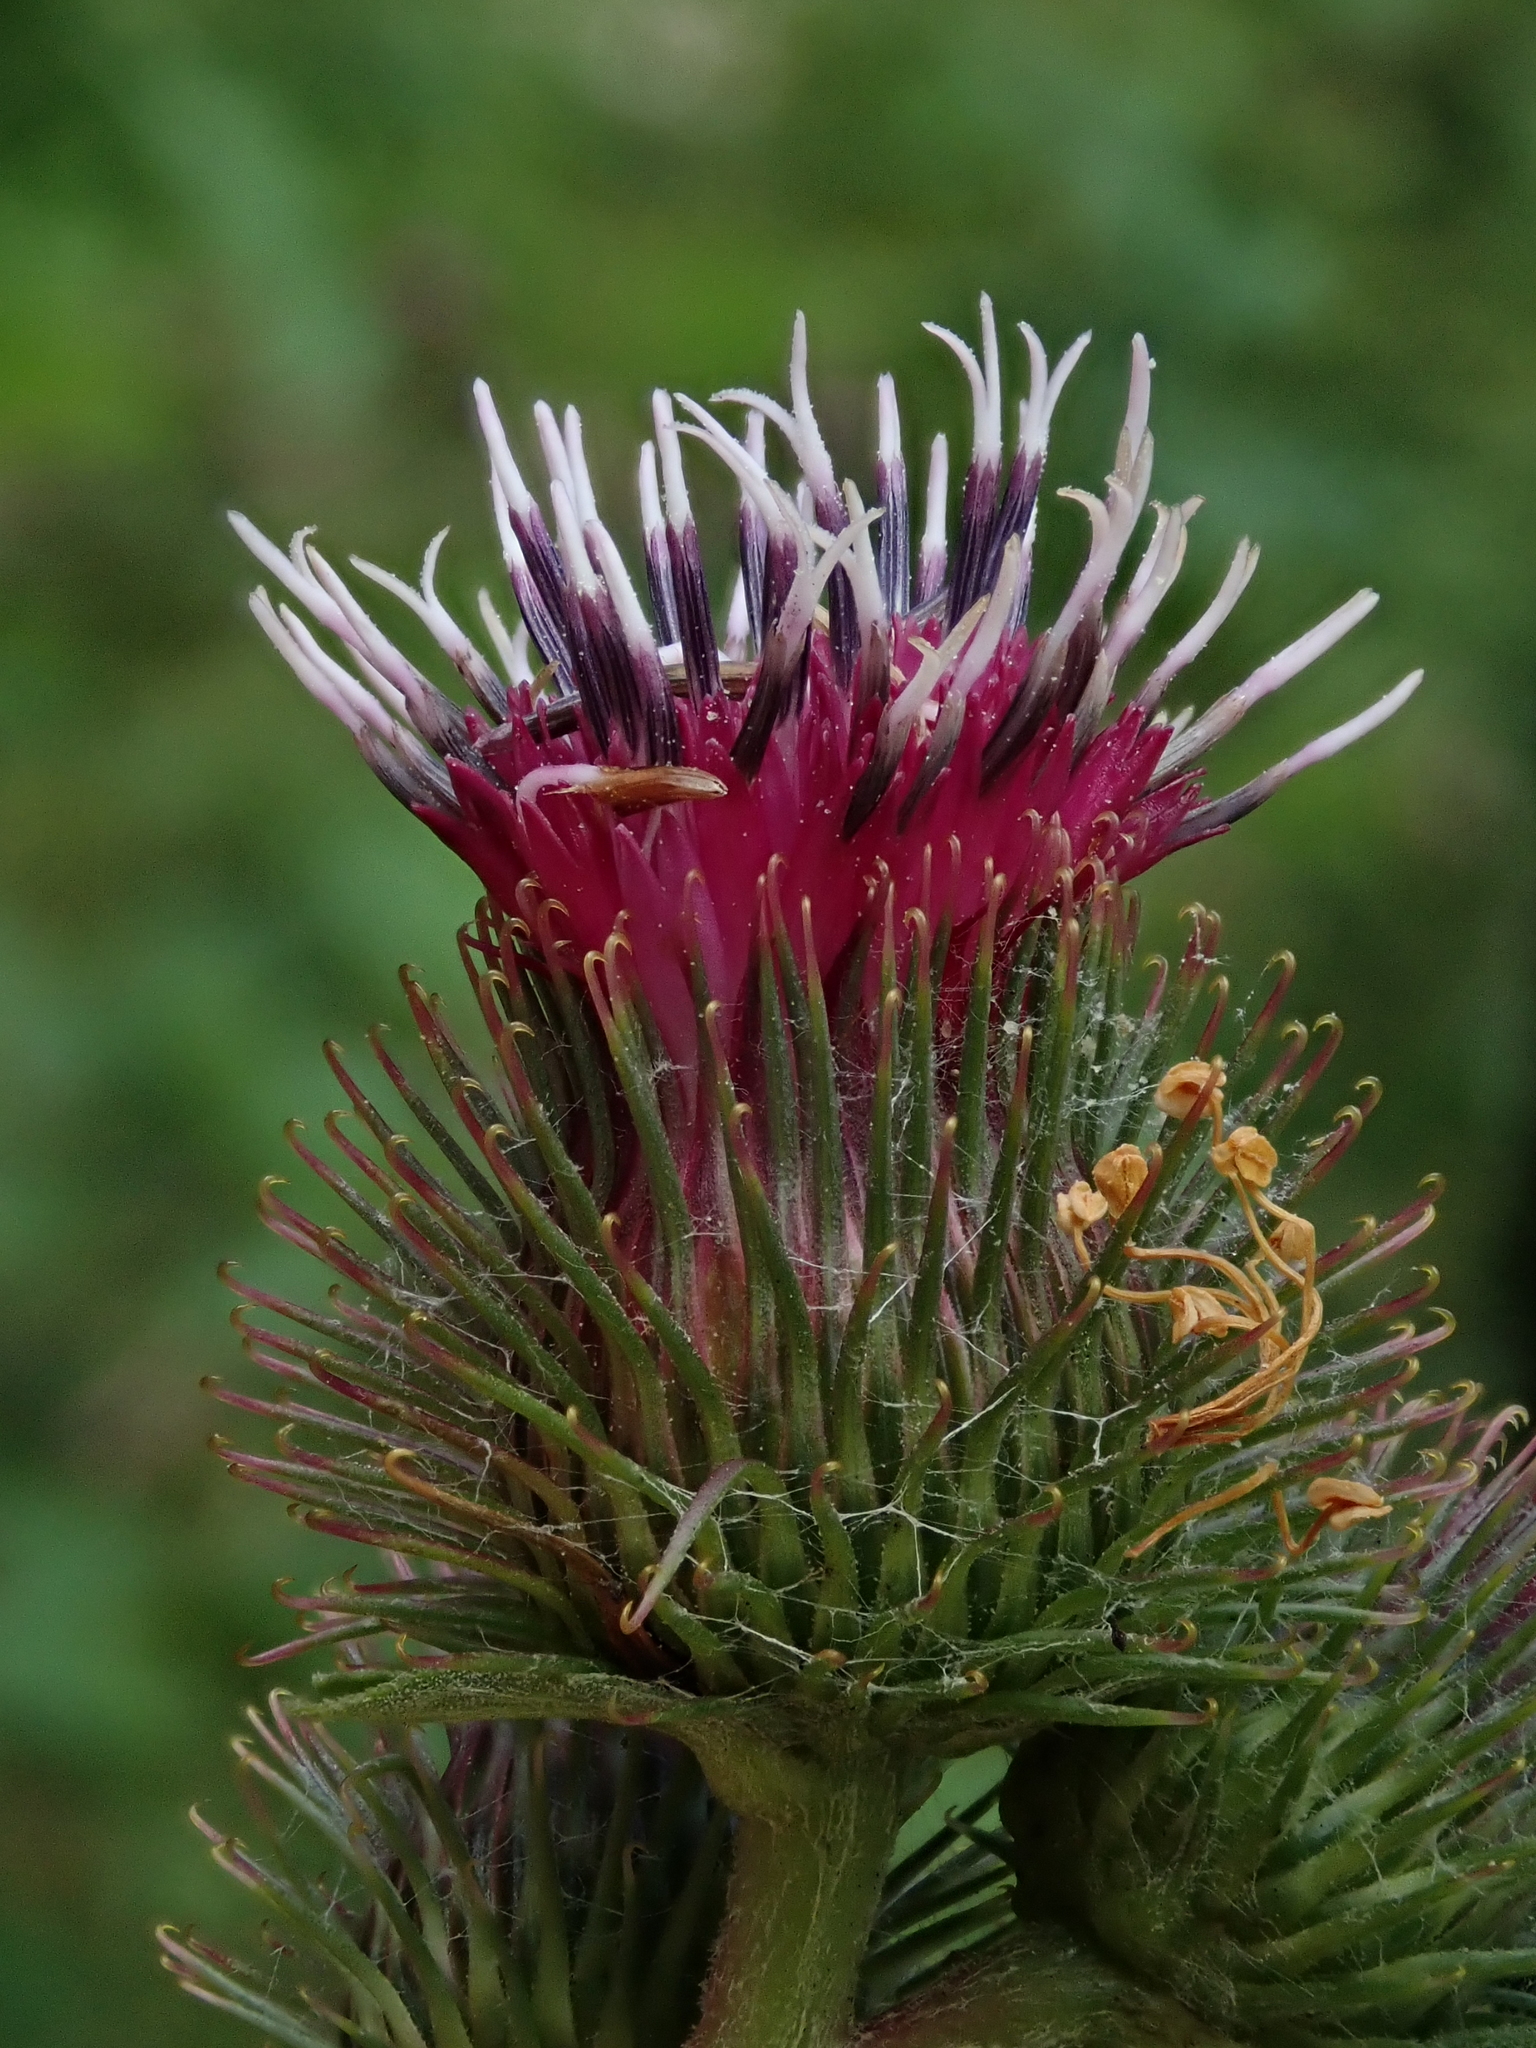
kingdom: Plantae
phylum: Tracheophyta
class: Magnoliopsida
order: Asterales
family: Asteraceae
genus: Arctium
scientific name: Arctium minus
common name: Lesser burdock
